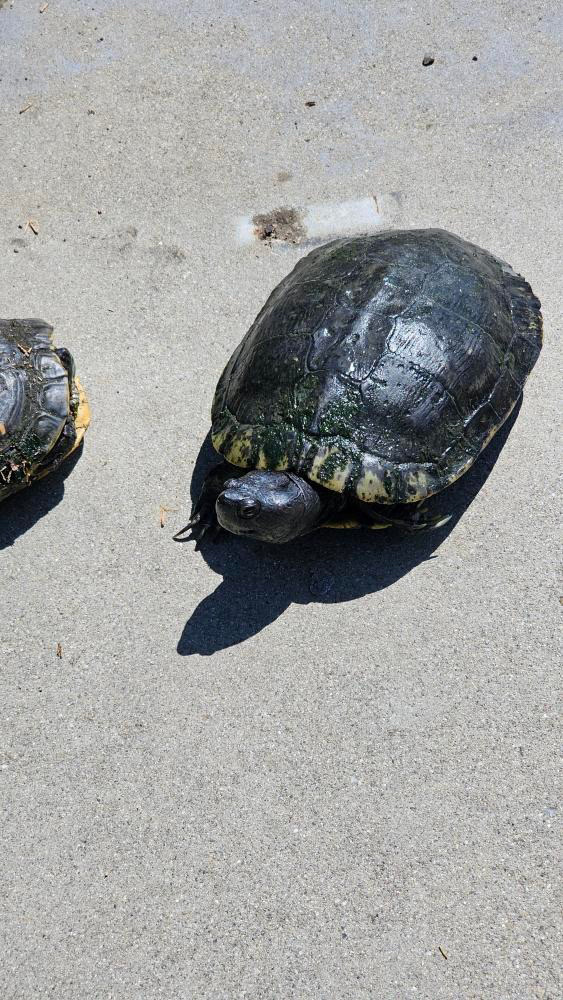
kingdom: Animalia
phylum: Chordata
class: Testudines
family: Emydidae
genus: Trachemys
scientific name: Trachemys scripta
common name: Slider
